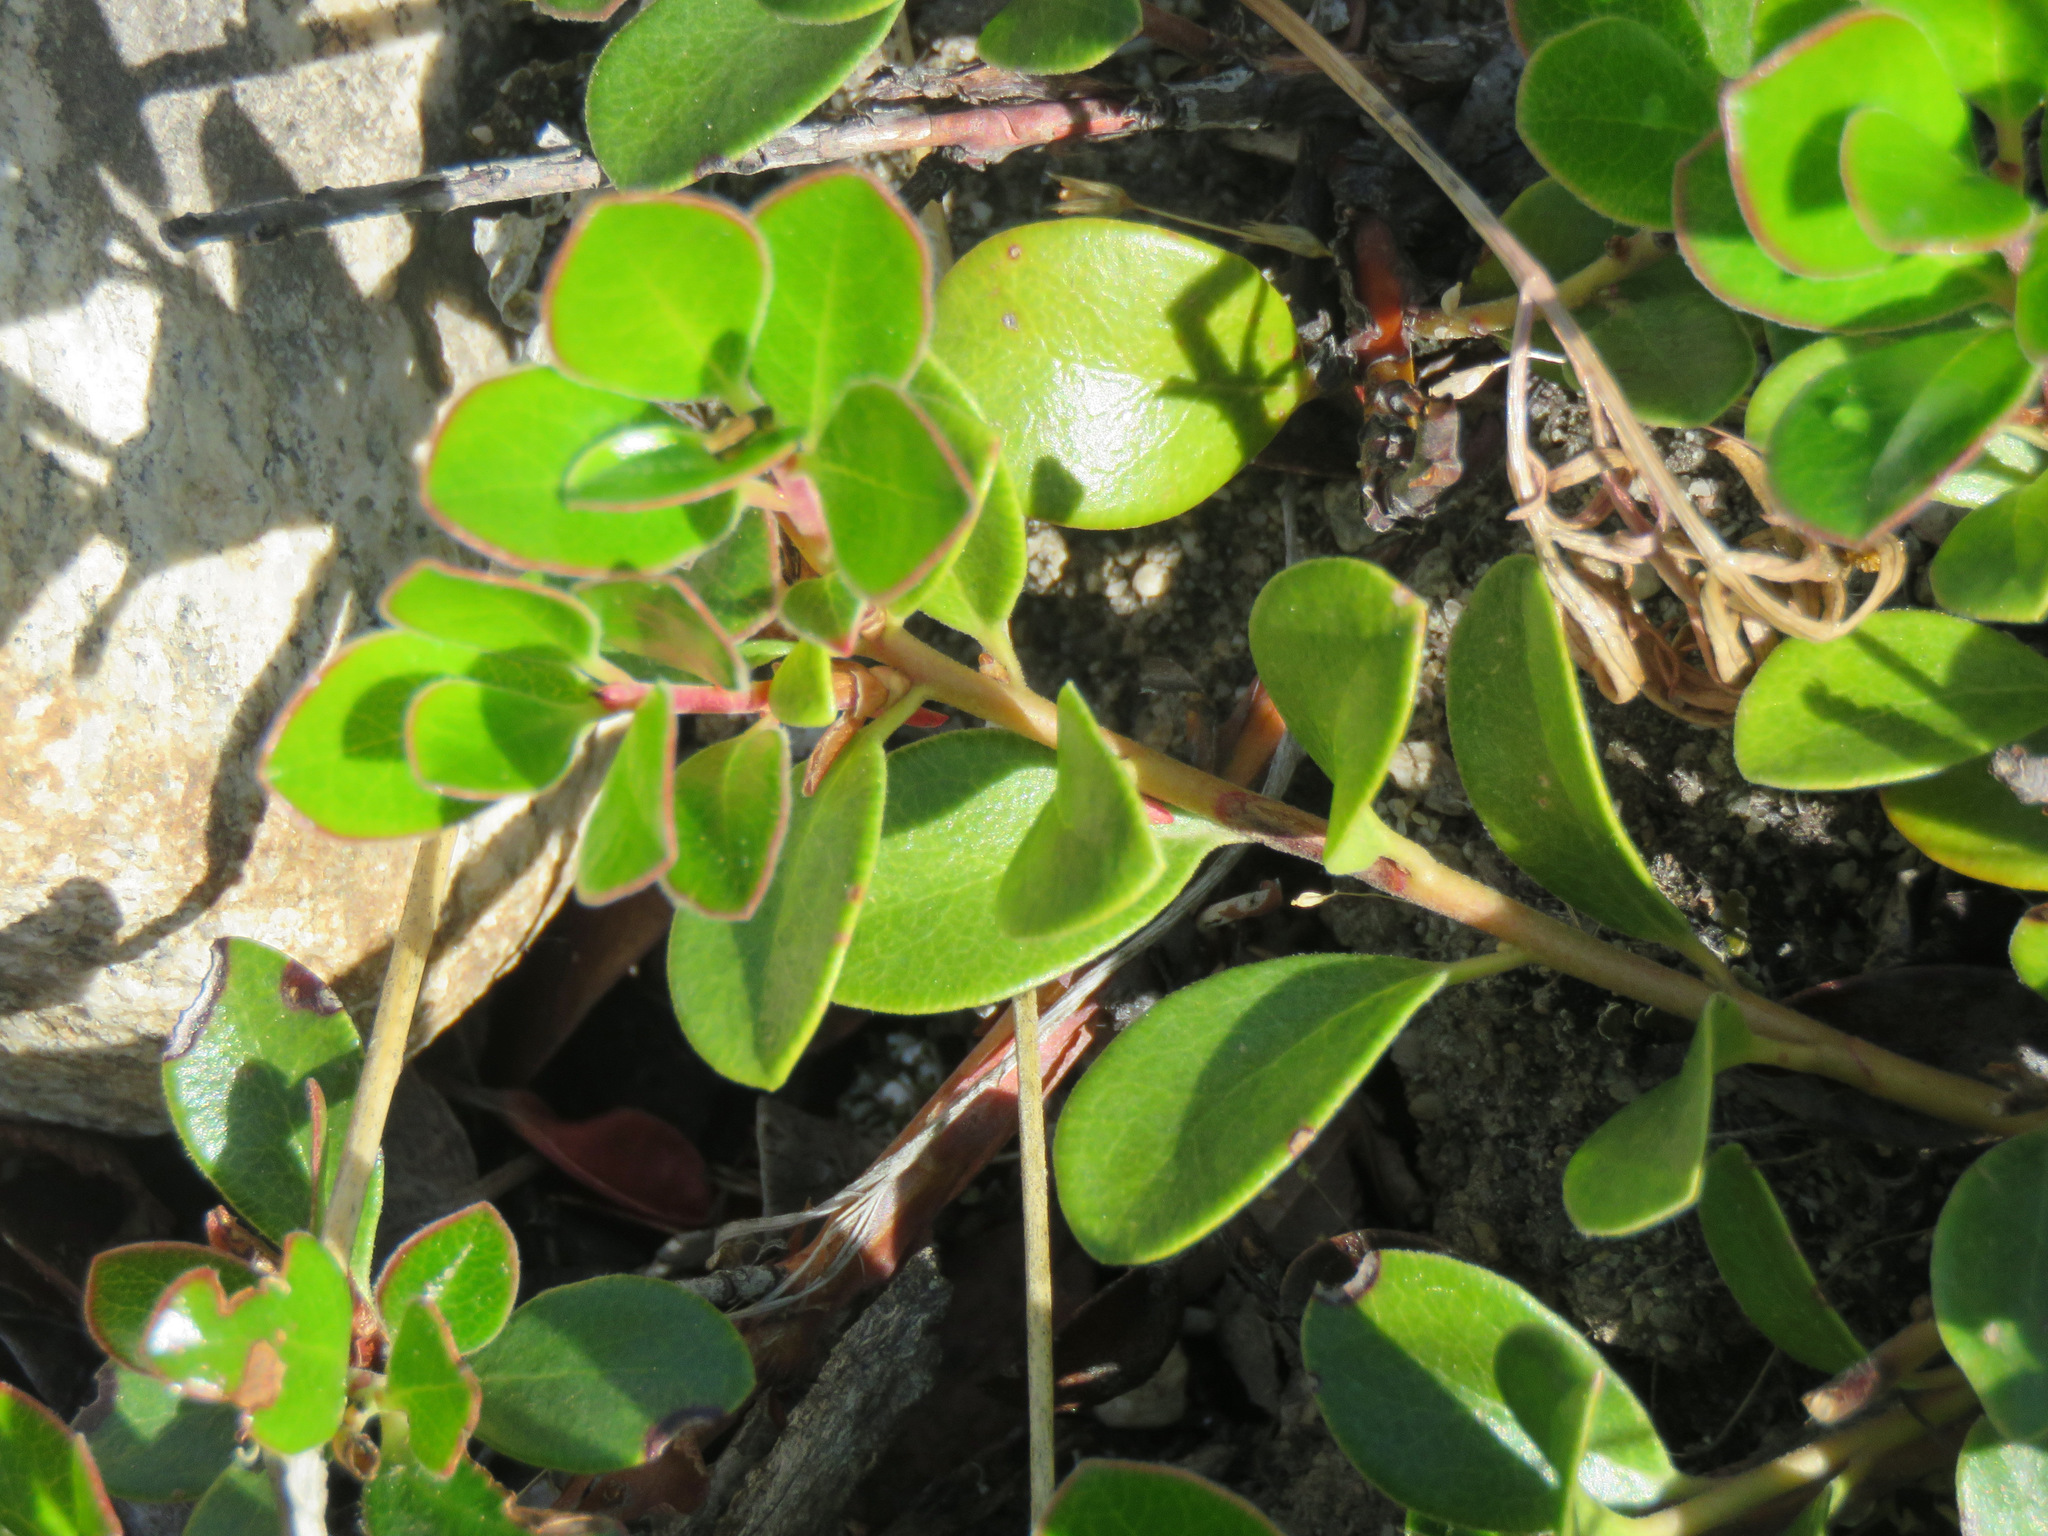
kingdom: Plantae
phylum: Tracheophyta
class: Magnoliopsida
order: Ericales
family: Ericaceae
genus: Arctostaphylos
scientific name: Arctostaphylos uva-ursi
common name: Bearberry
